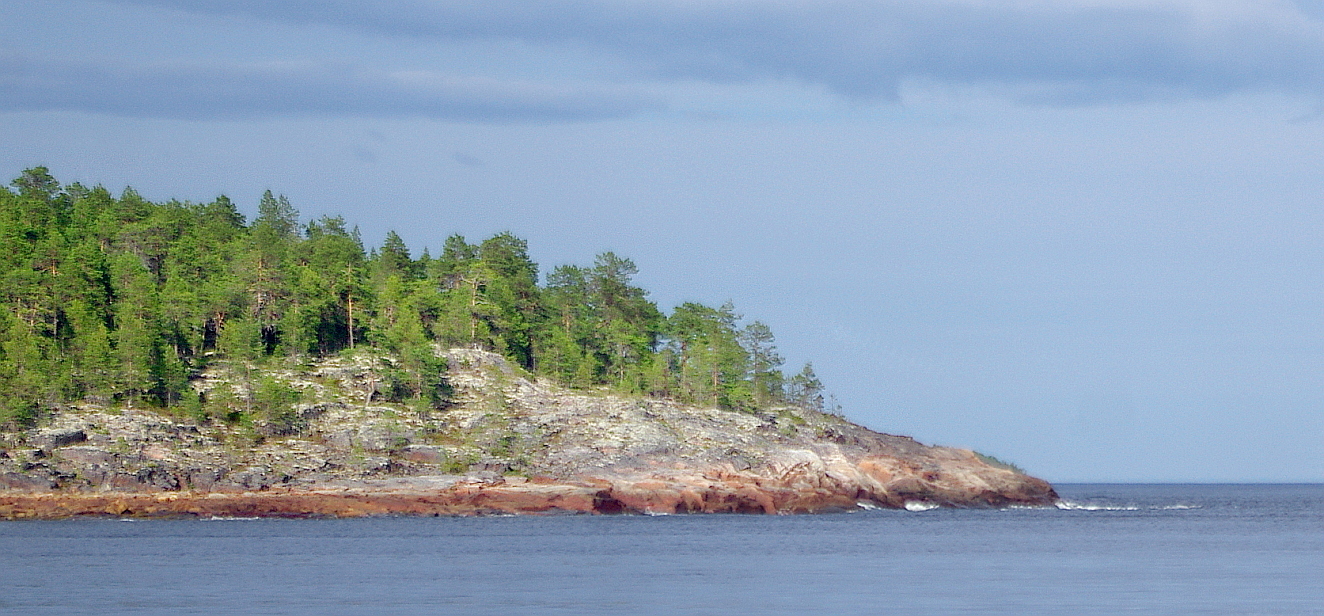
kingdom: Plantae
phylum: Tracheophyta
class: Pinopsida
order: Pinales
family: Pinaceae
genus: Pinus
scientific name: Pinus sylvestris
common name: Scots pine
